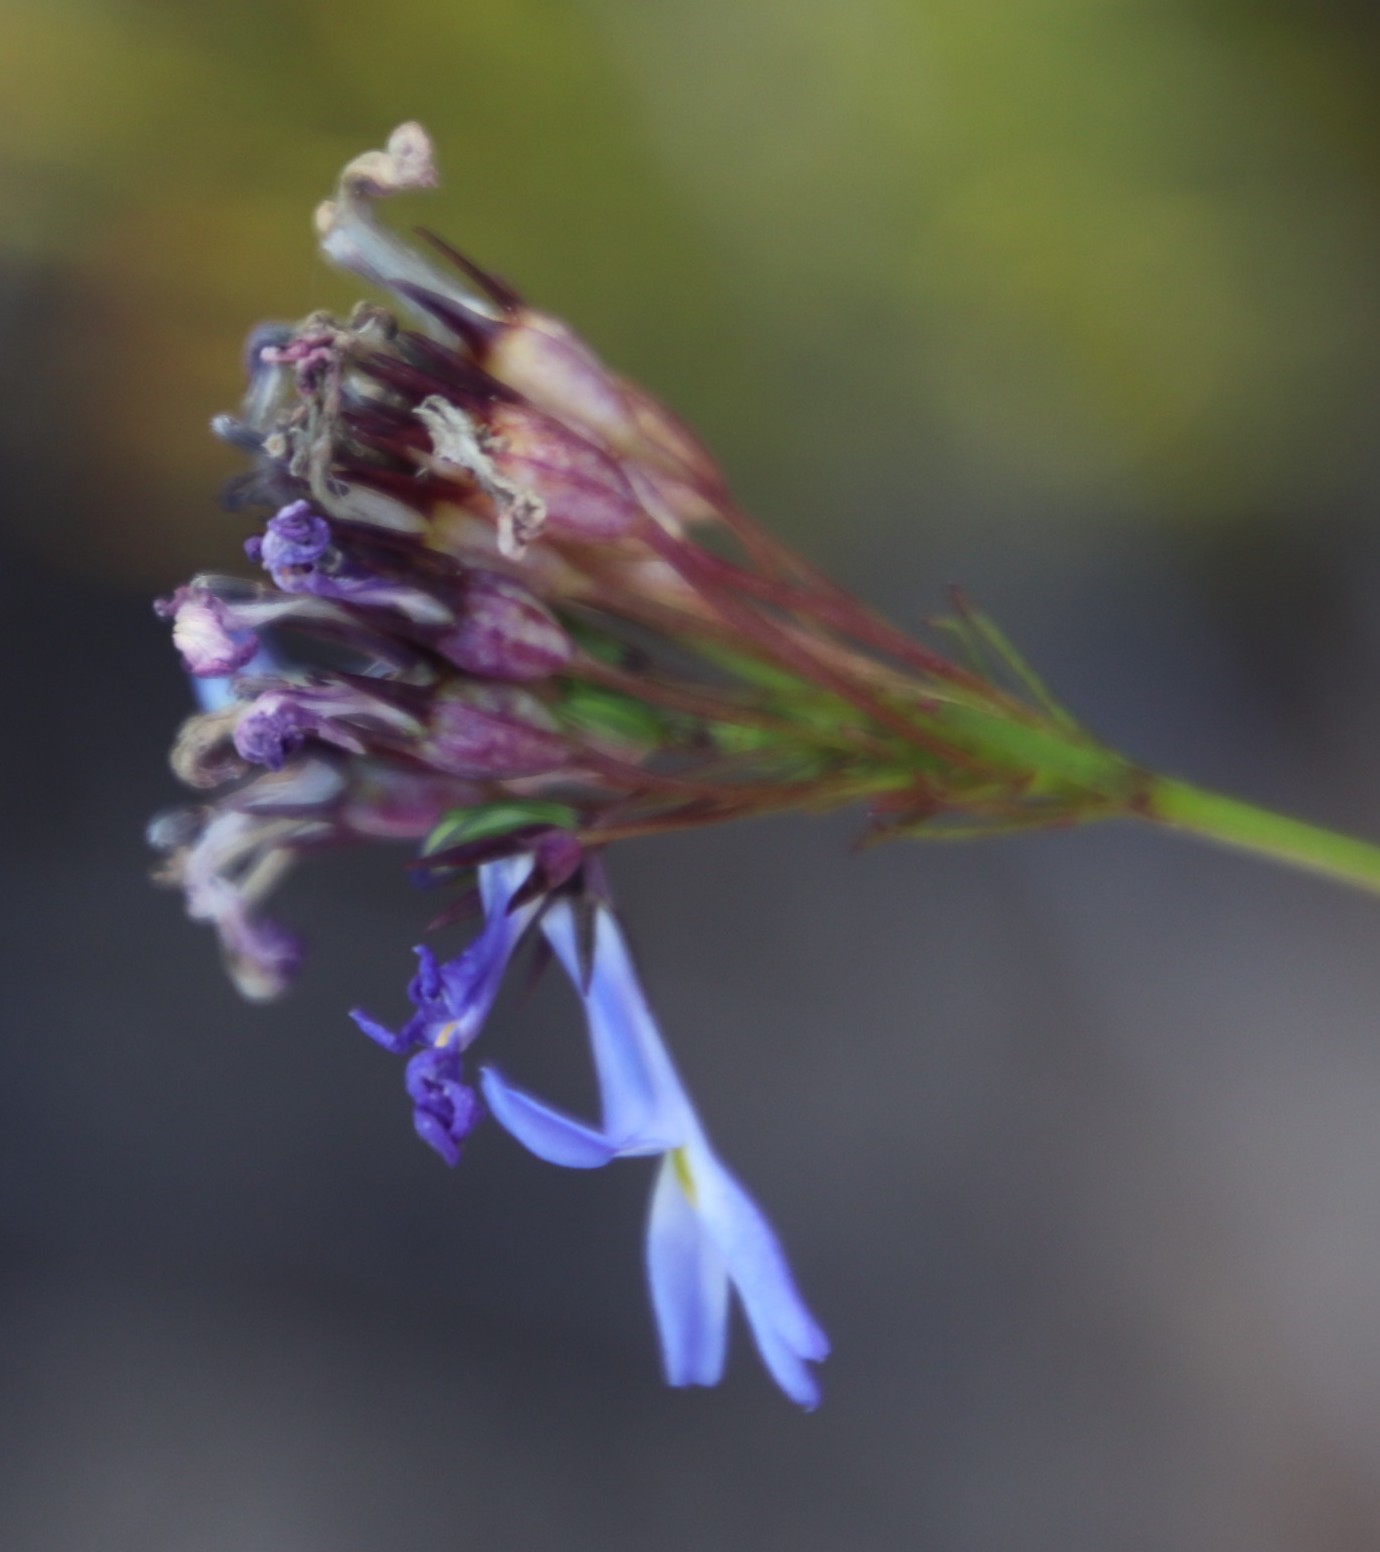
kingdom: Plantae
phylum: Tracheophyta
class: Magnoliopsida
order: Asterales
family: Campanulaceae
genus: Lobelia
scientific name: Lobelia comosa
